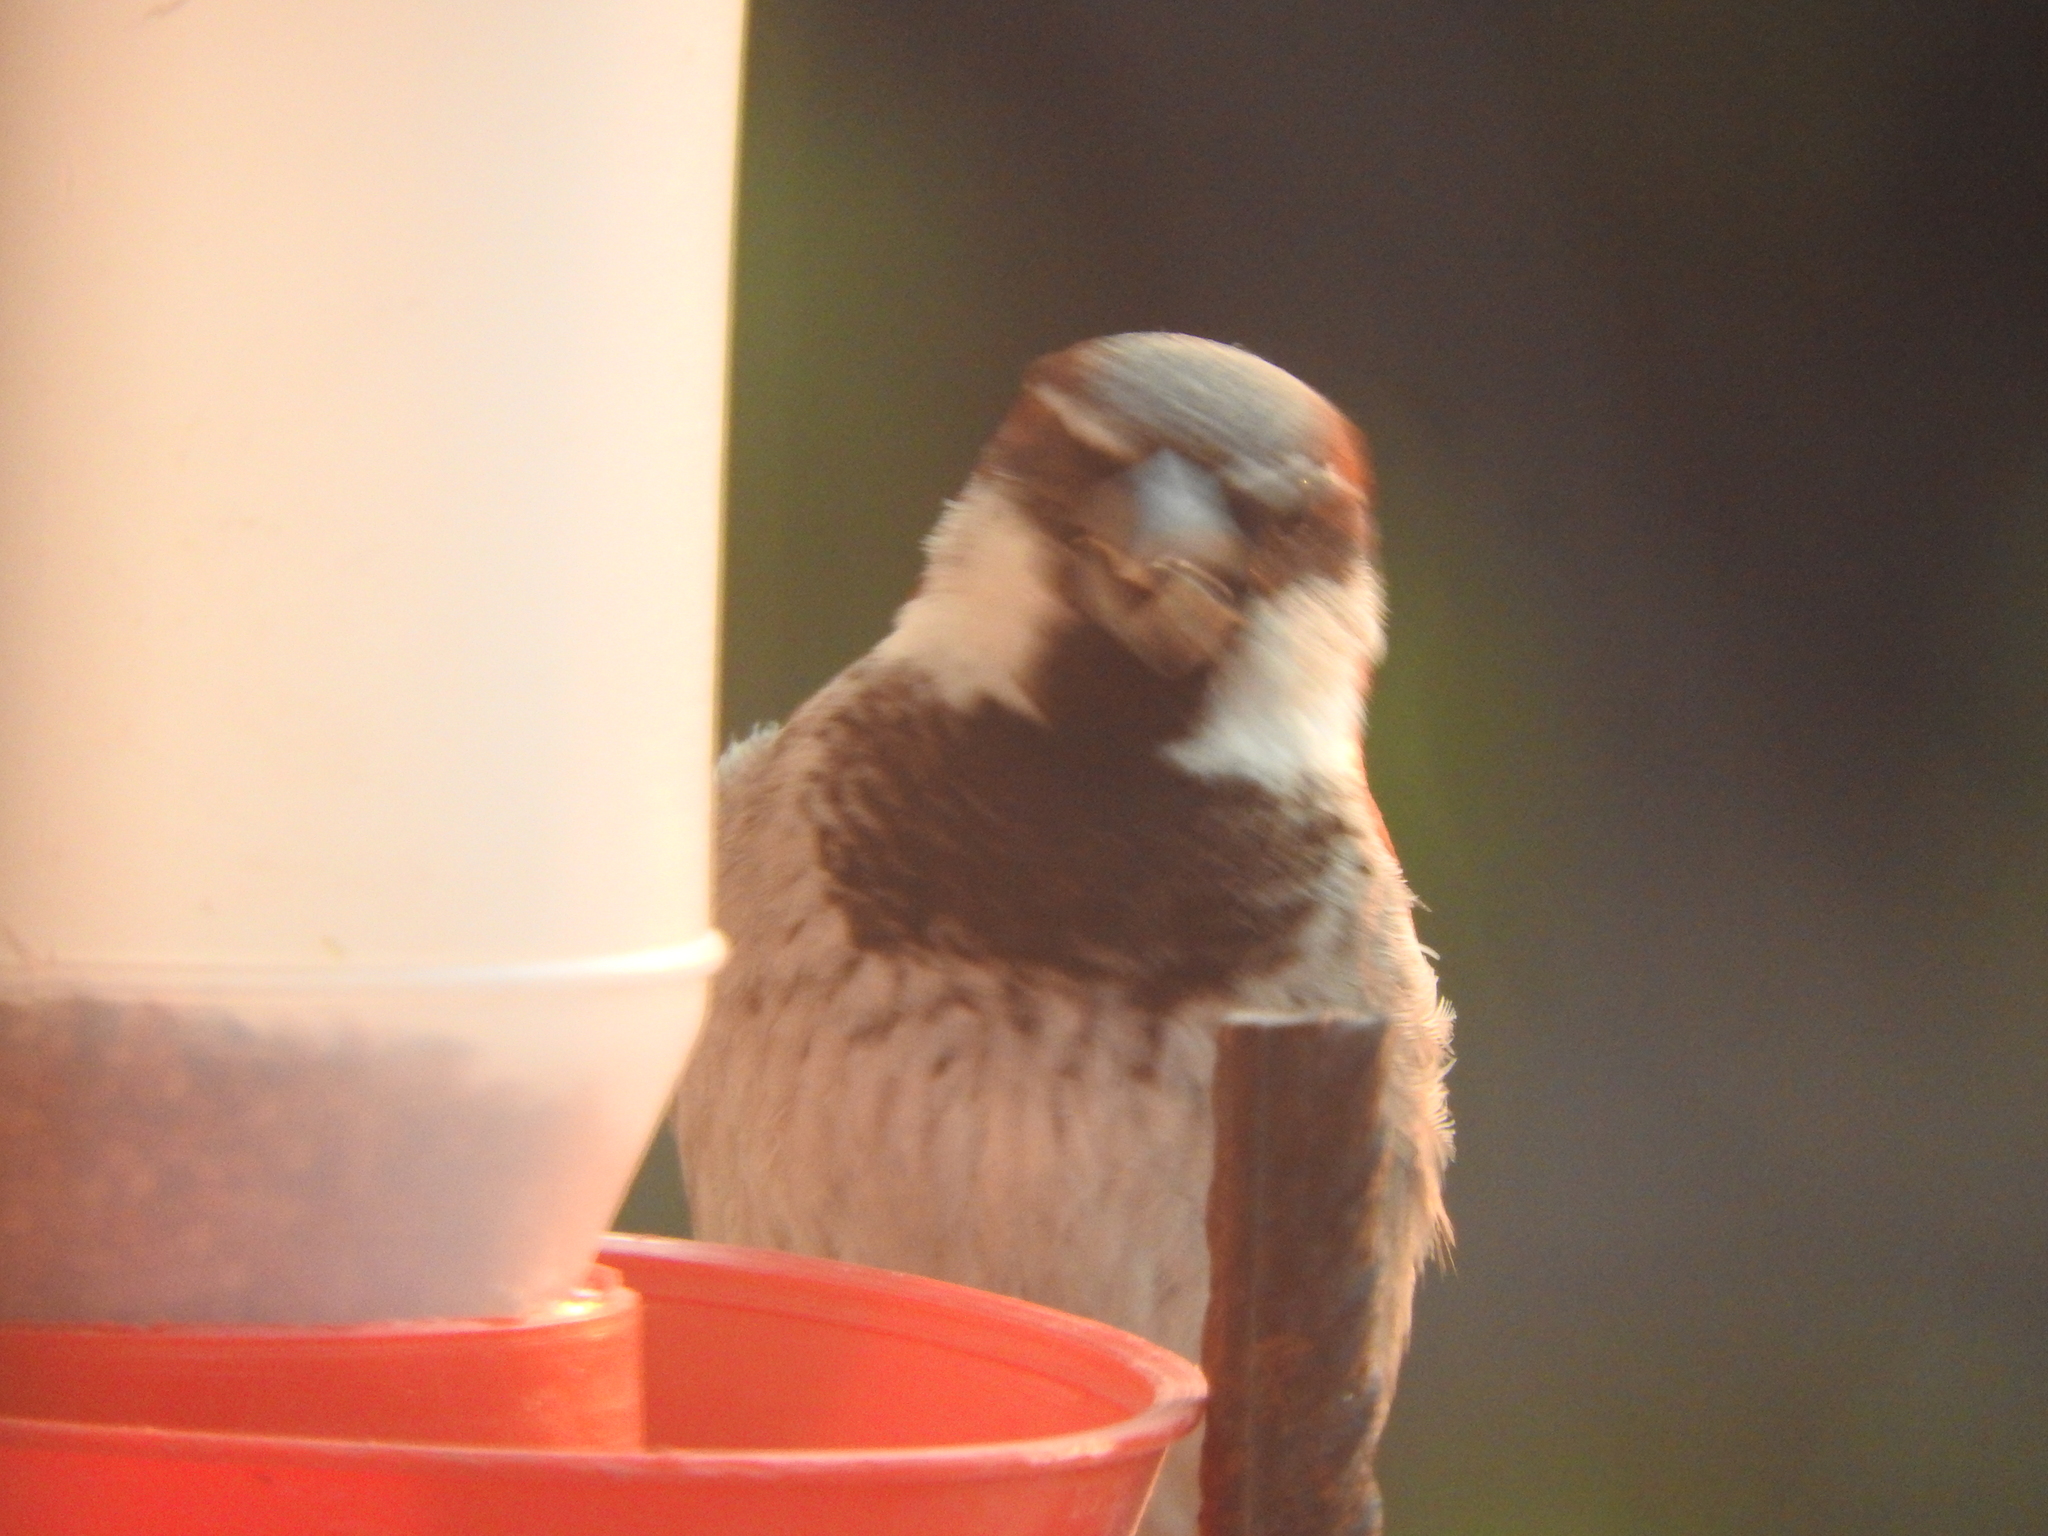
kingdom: Animalia
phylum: Chordata
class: Aves
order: Passeriformes
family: Passeridae
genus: Passer
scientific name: Passer domesticus
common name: House sparrow
